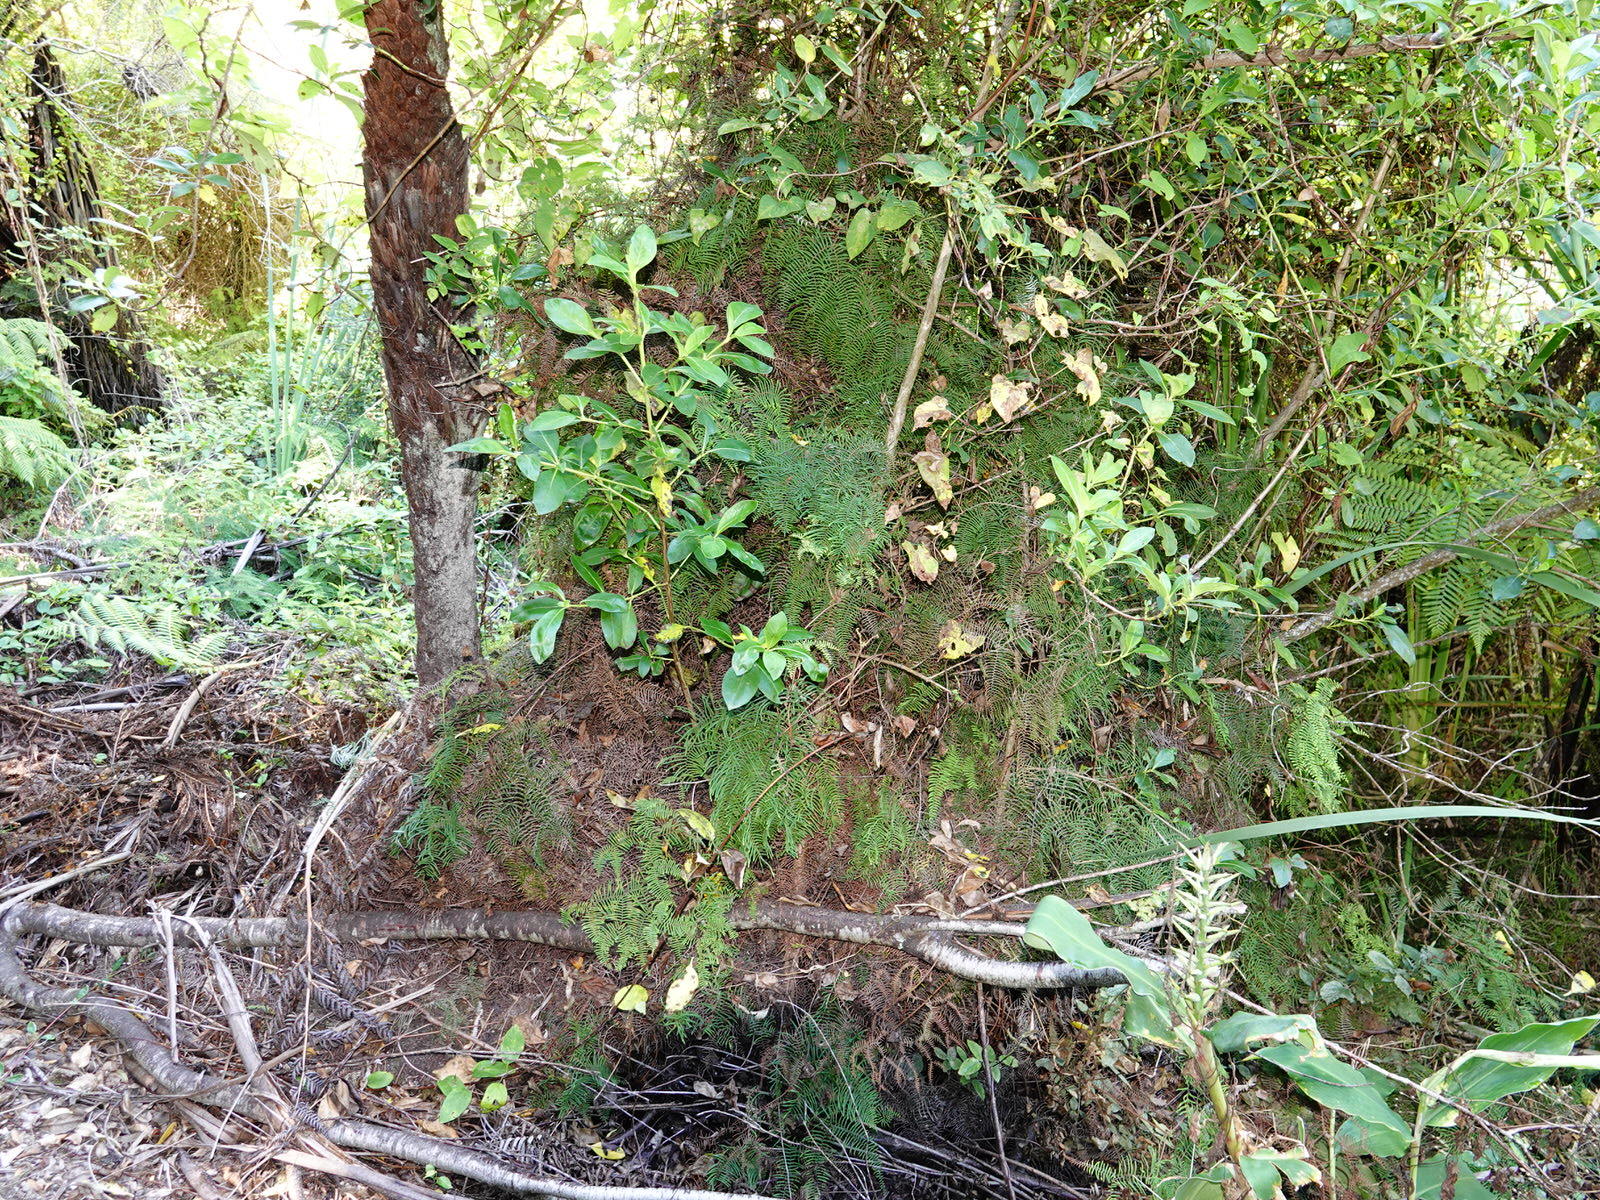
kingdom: Plantae
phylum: Tracheophyta
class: Polypodiopsida
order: Gleicheniales
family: Gleicheniaceae
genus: Gleichenia
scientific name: Gleichenia dicarpa
